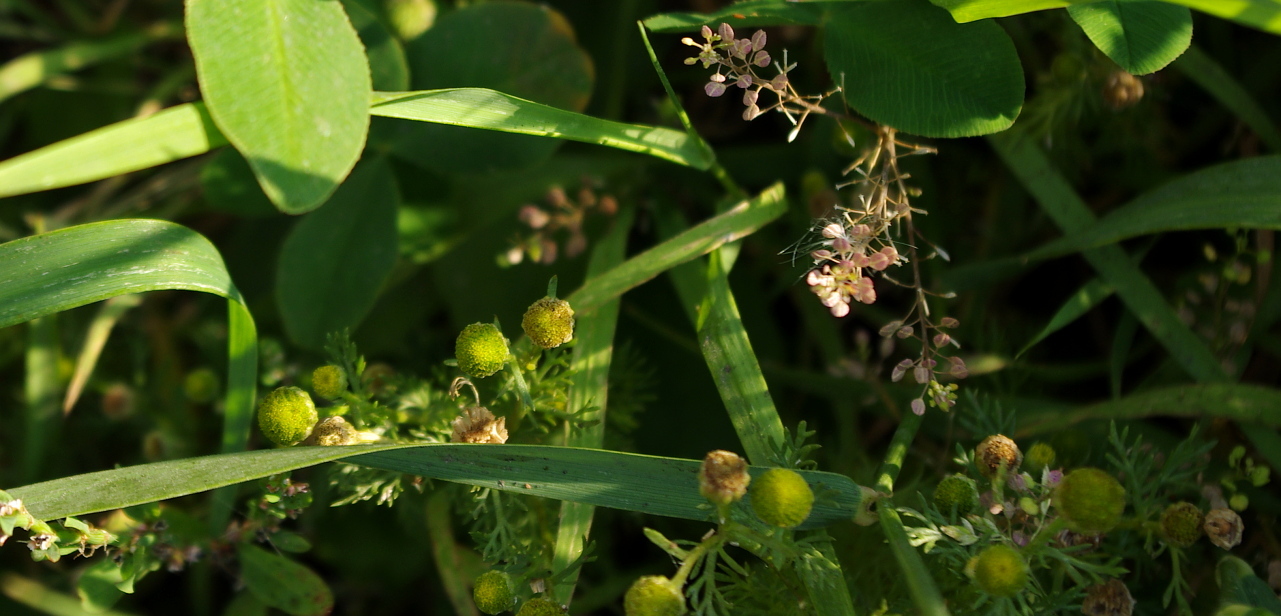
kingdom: Plantae
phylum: Tracheophyta
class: Magnoliopsida
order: Asterales
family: Asteraceae
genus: Matricaria
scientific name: Matricaria discoidea
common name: Disc mayweed
